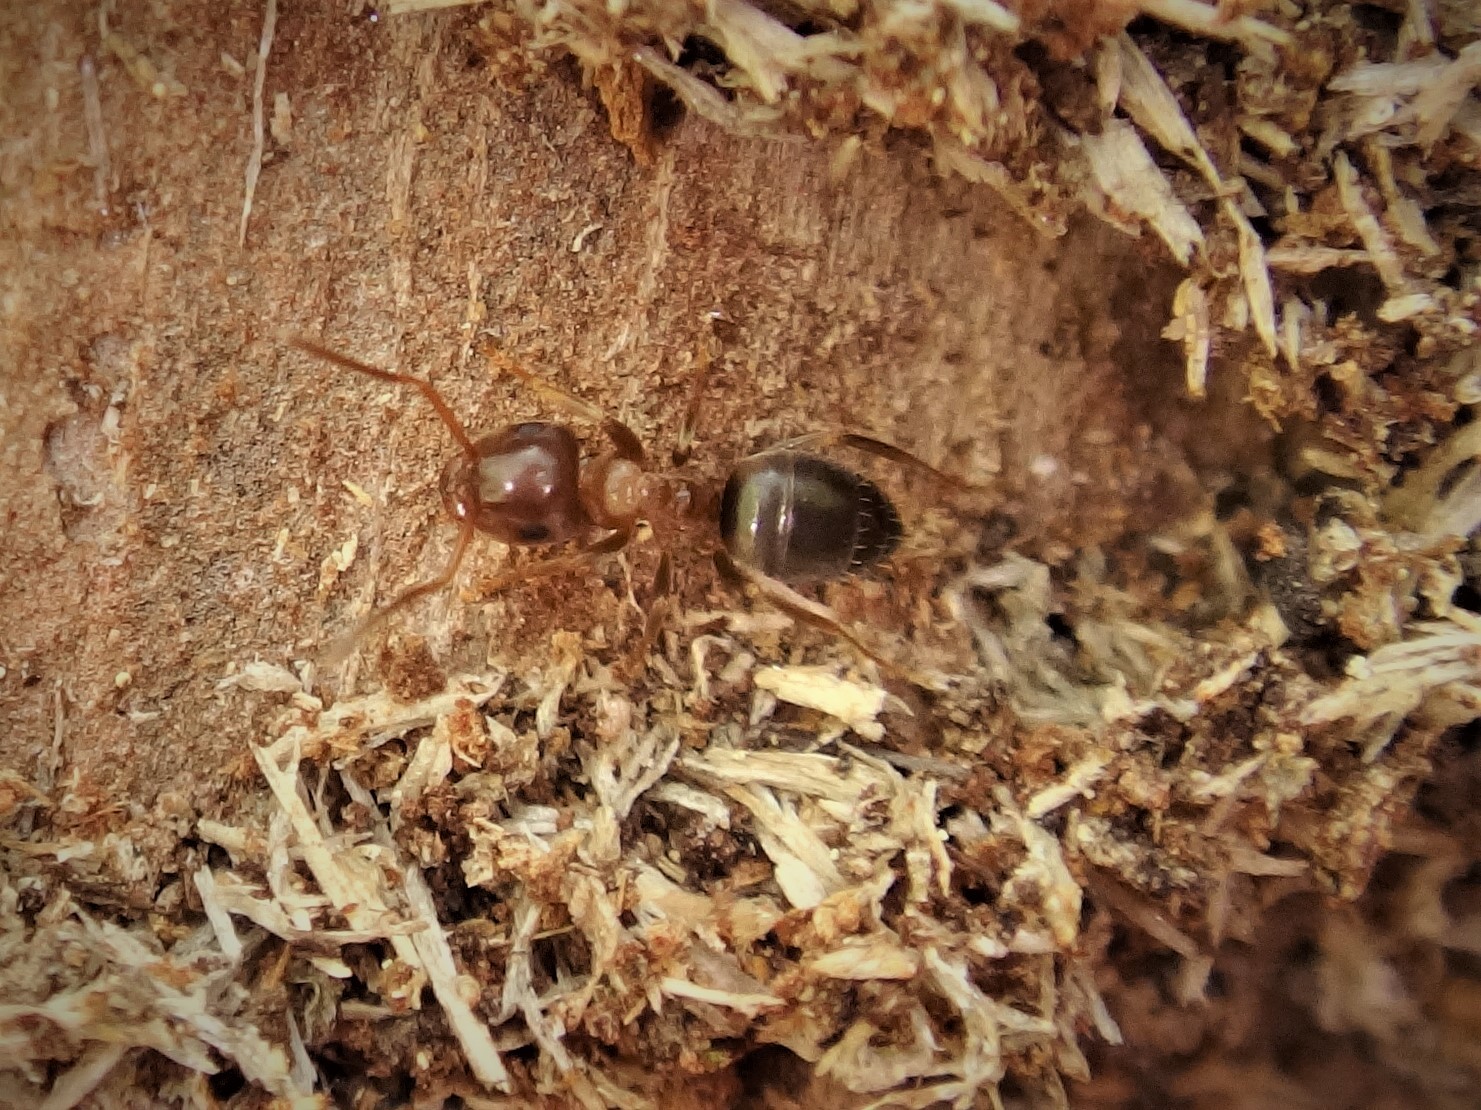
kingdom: Animalia
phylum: Arthropoda
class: Insecta
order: Hymenoptera
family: Formicidae
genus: Lasius
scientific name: Lasius brunneus
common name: Brown ant
